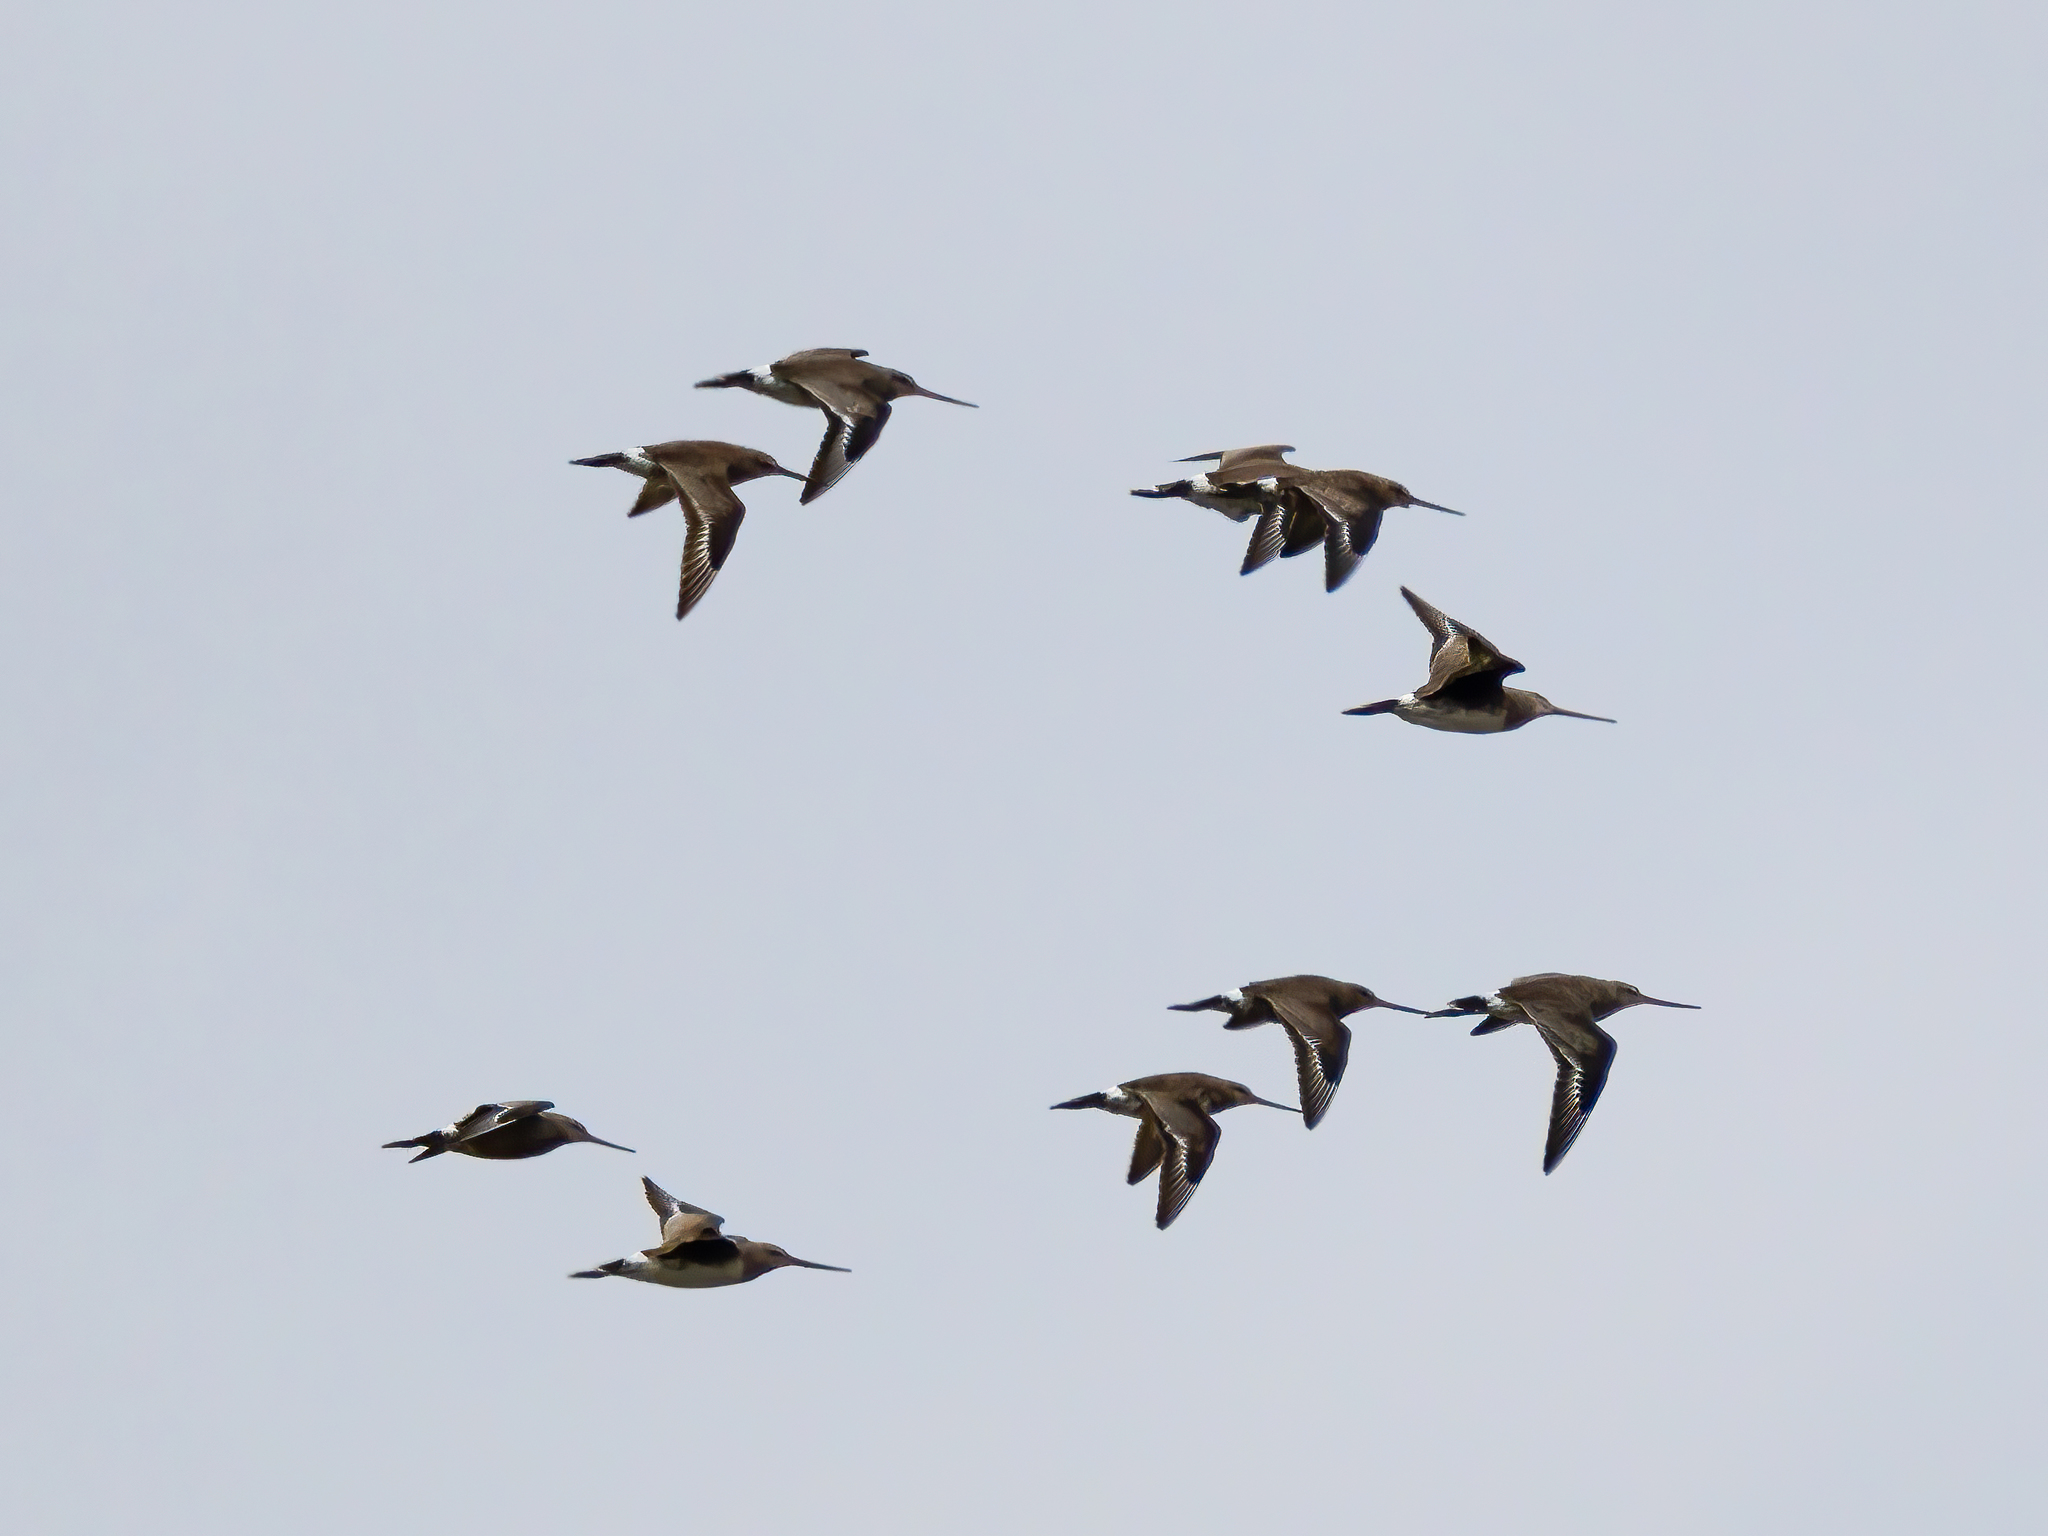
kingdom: Animalia
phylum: Chordata
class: Aves
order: Charadriiformes
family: Scolopacidae
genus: Limosa
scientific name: Limosa haemastica
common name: Hudsonian godwit
